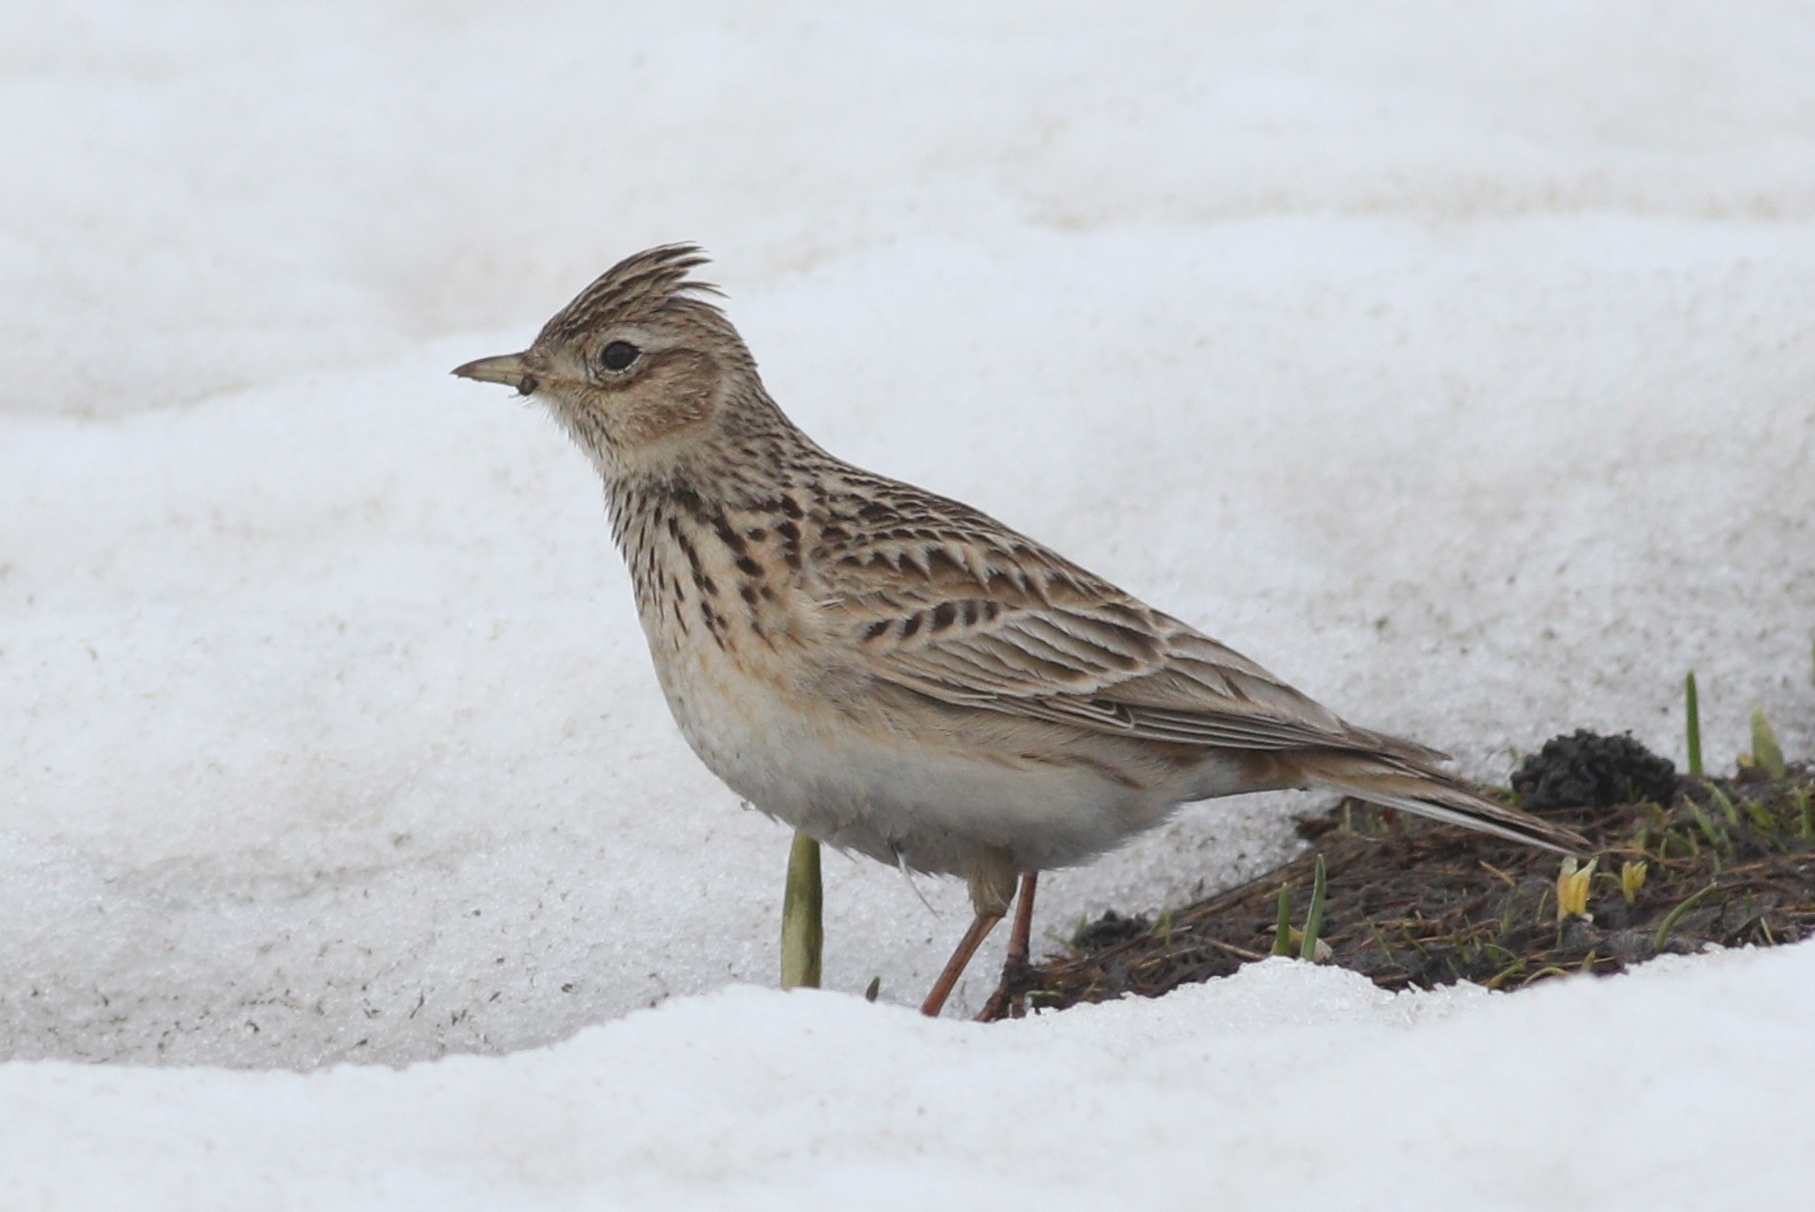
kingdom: Animalia
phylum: Chordata
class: Aves
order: Passeriformes
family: Alaudidae
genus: Alauda
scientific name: Alauda arvensis
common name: Eurasian skylark
